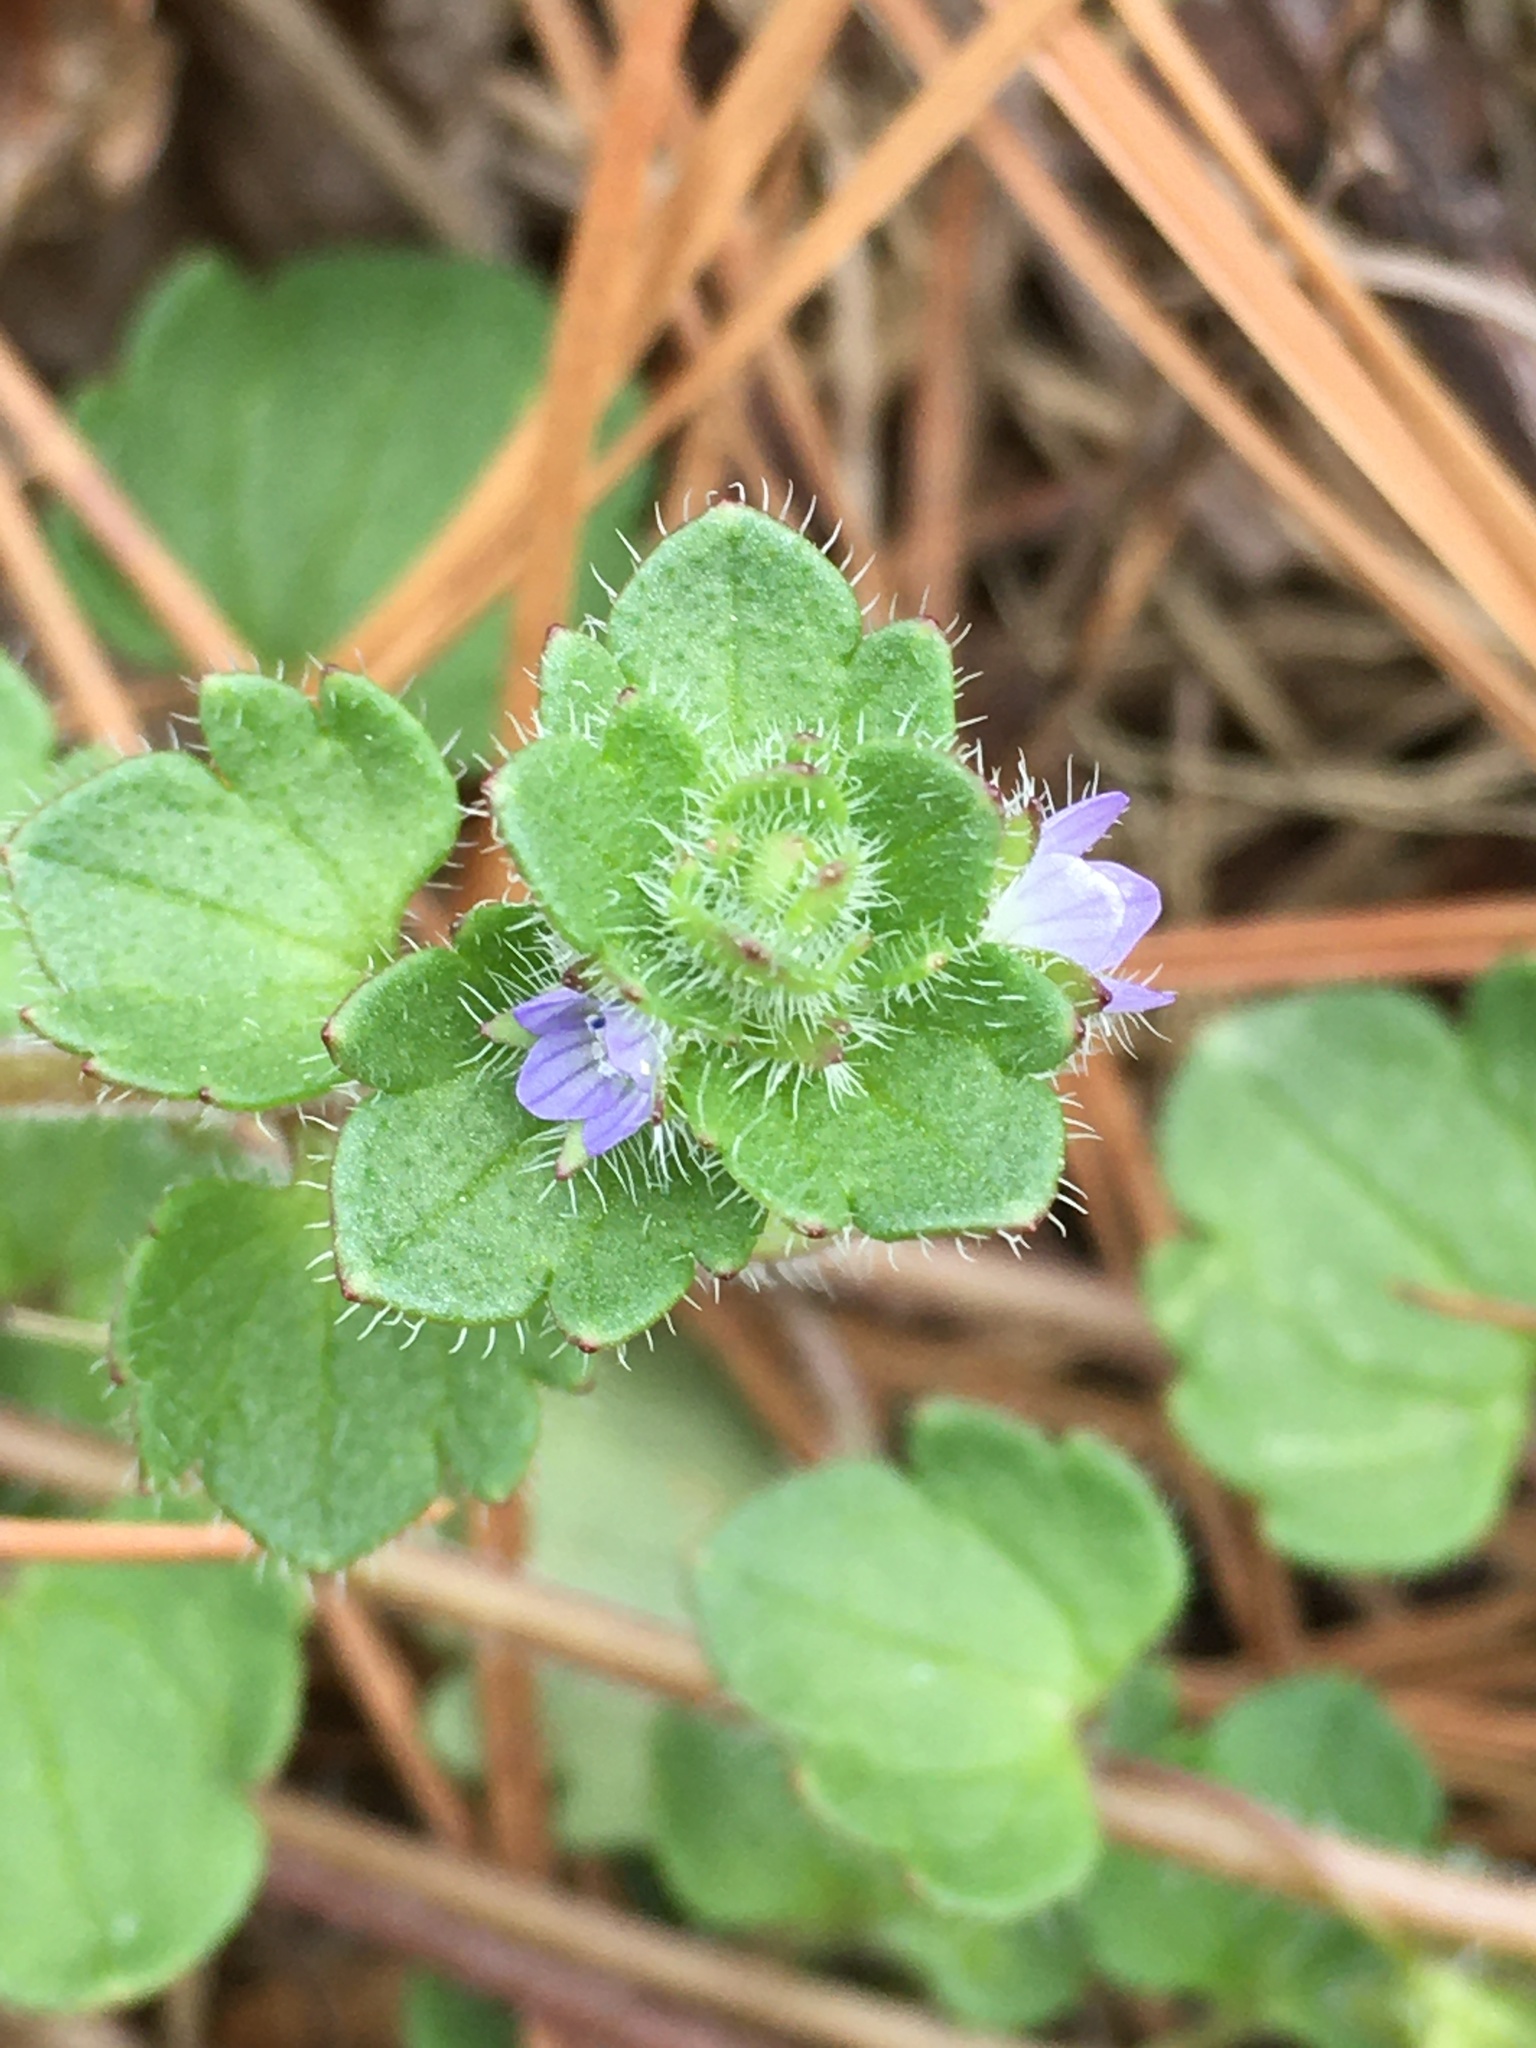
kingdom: Plantae
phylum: Tracheophyta
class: Magnoliopsida
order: Lamiales
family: Plantaginaceae
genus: Veronica
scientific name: Veronica hederifolia
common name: Ivy-leaved speedwell
